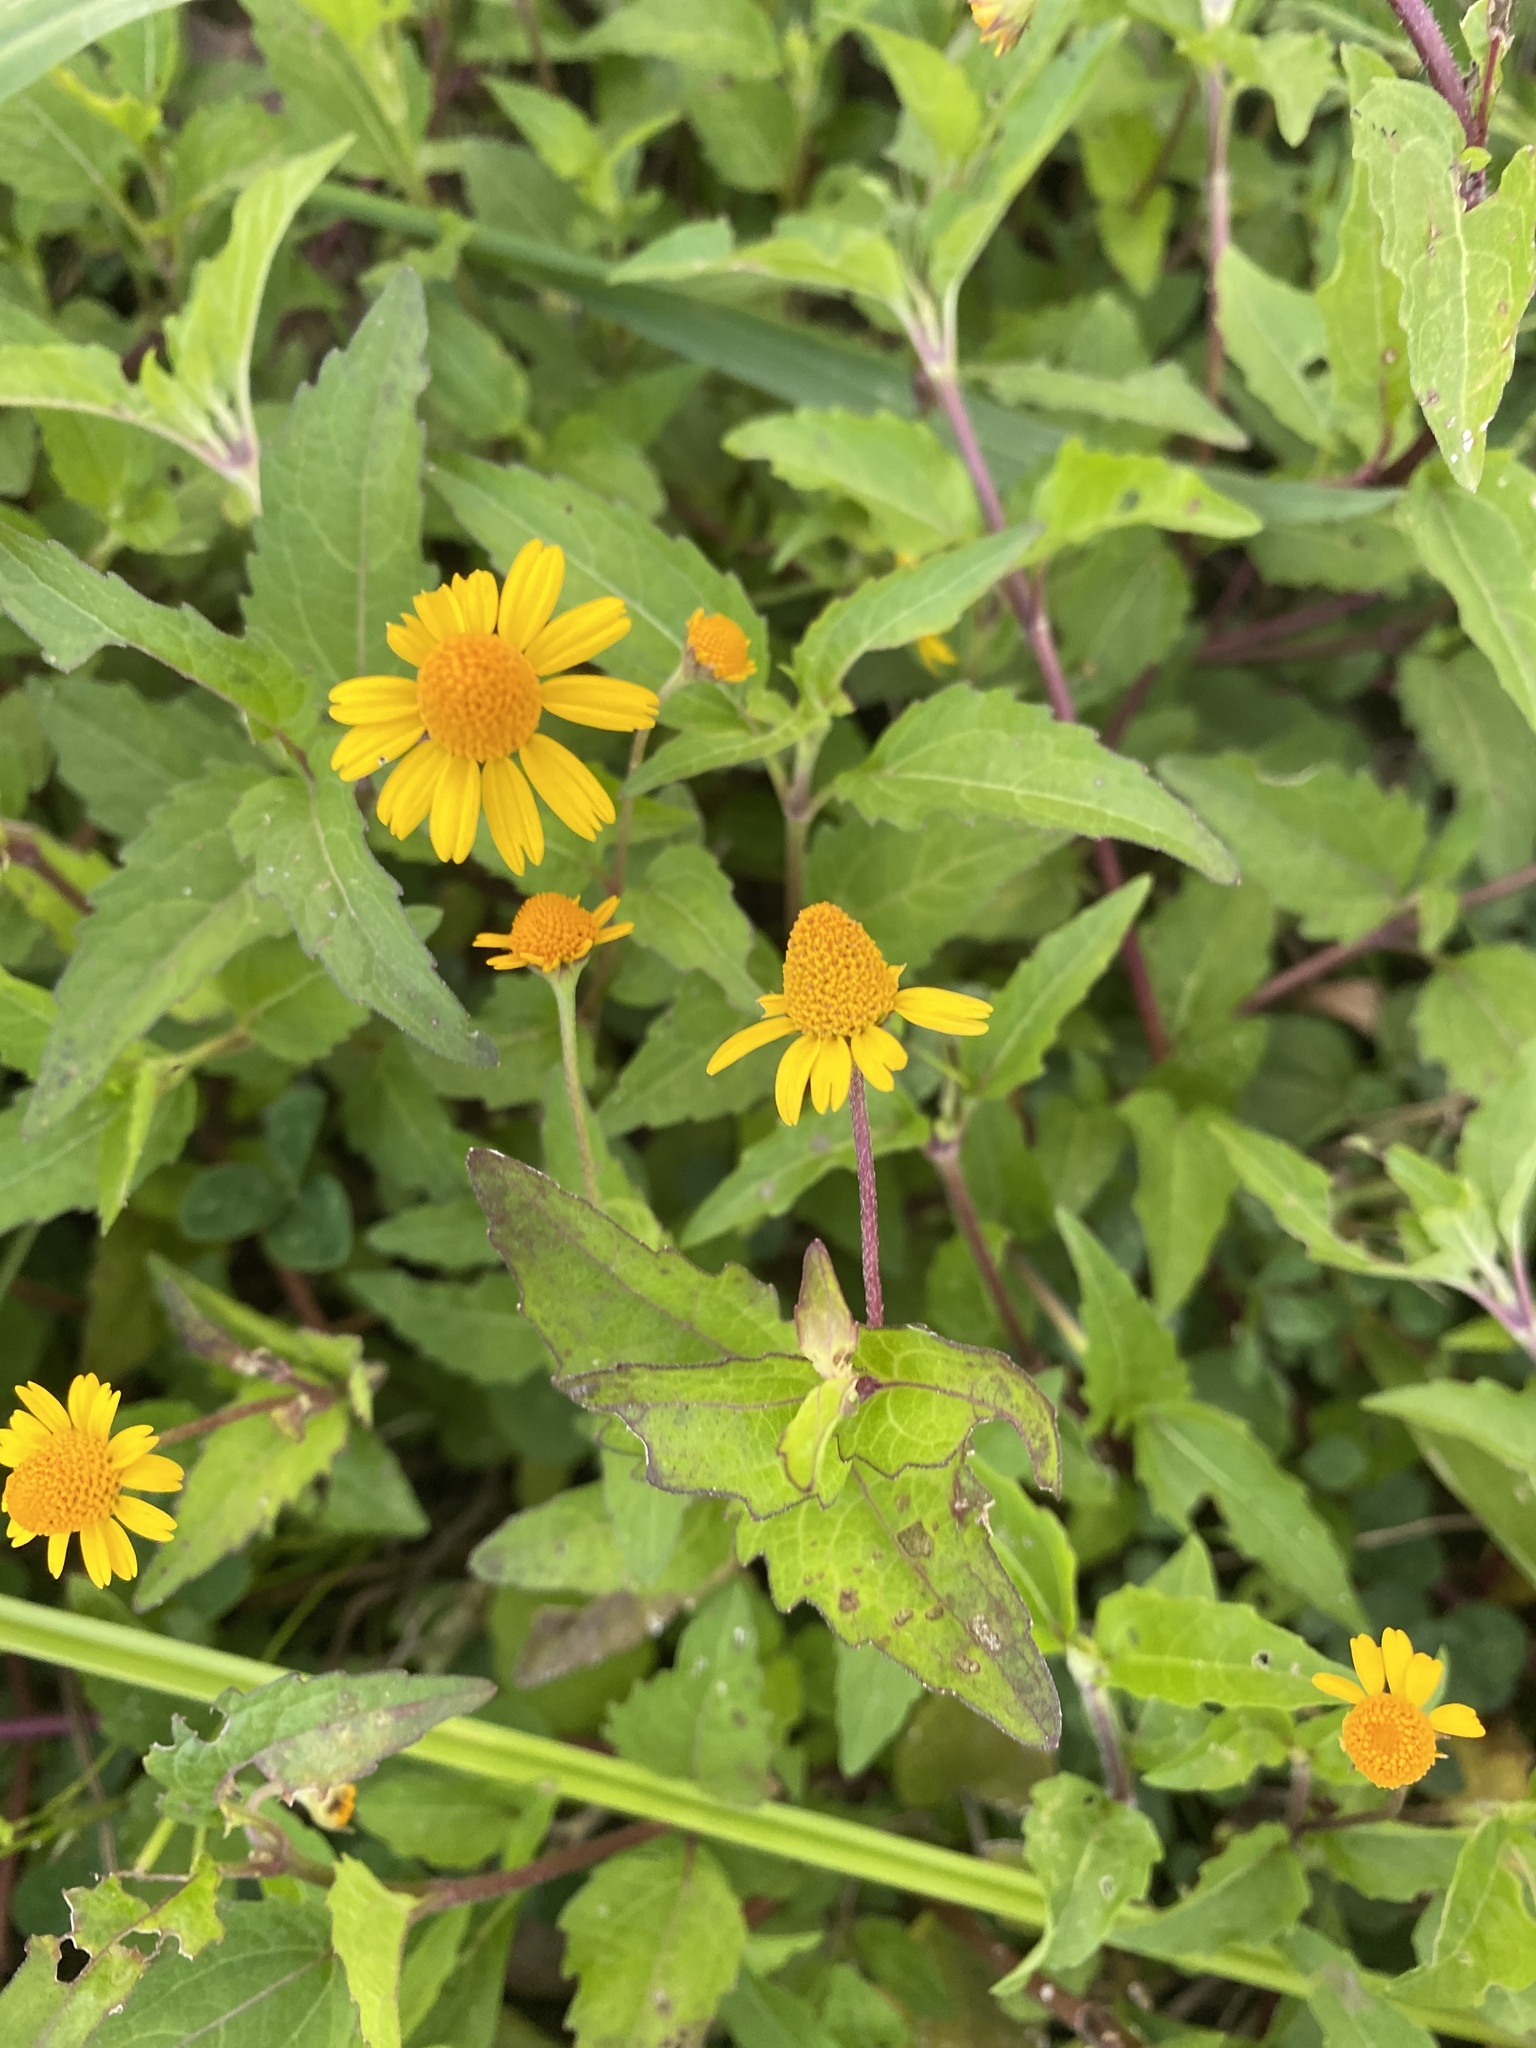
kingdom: Plantae
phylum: Tracheophyta
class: Magnoliopsida
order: Asterales
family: Asteraceae
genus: Sphagneticola
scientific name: Sphagneticola trilobata
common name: Bay biscayne creeping-oxeye
